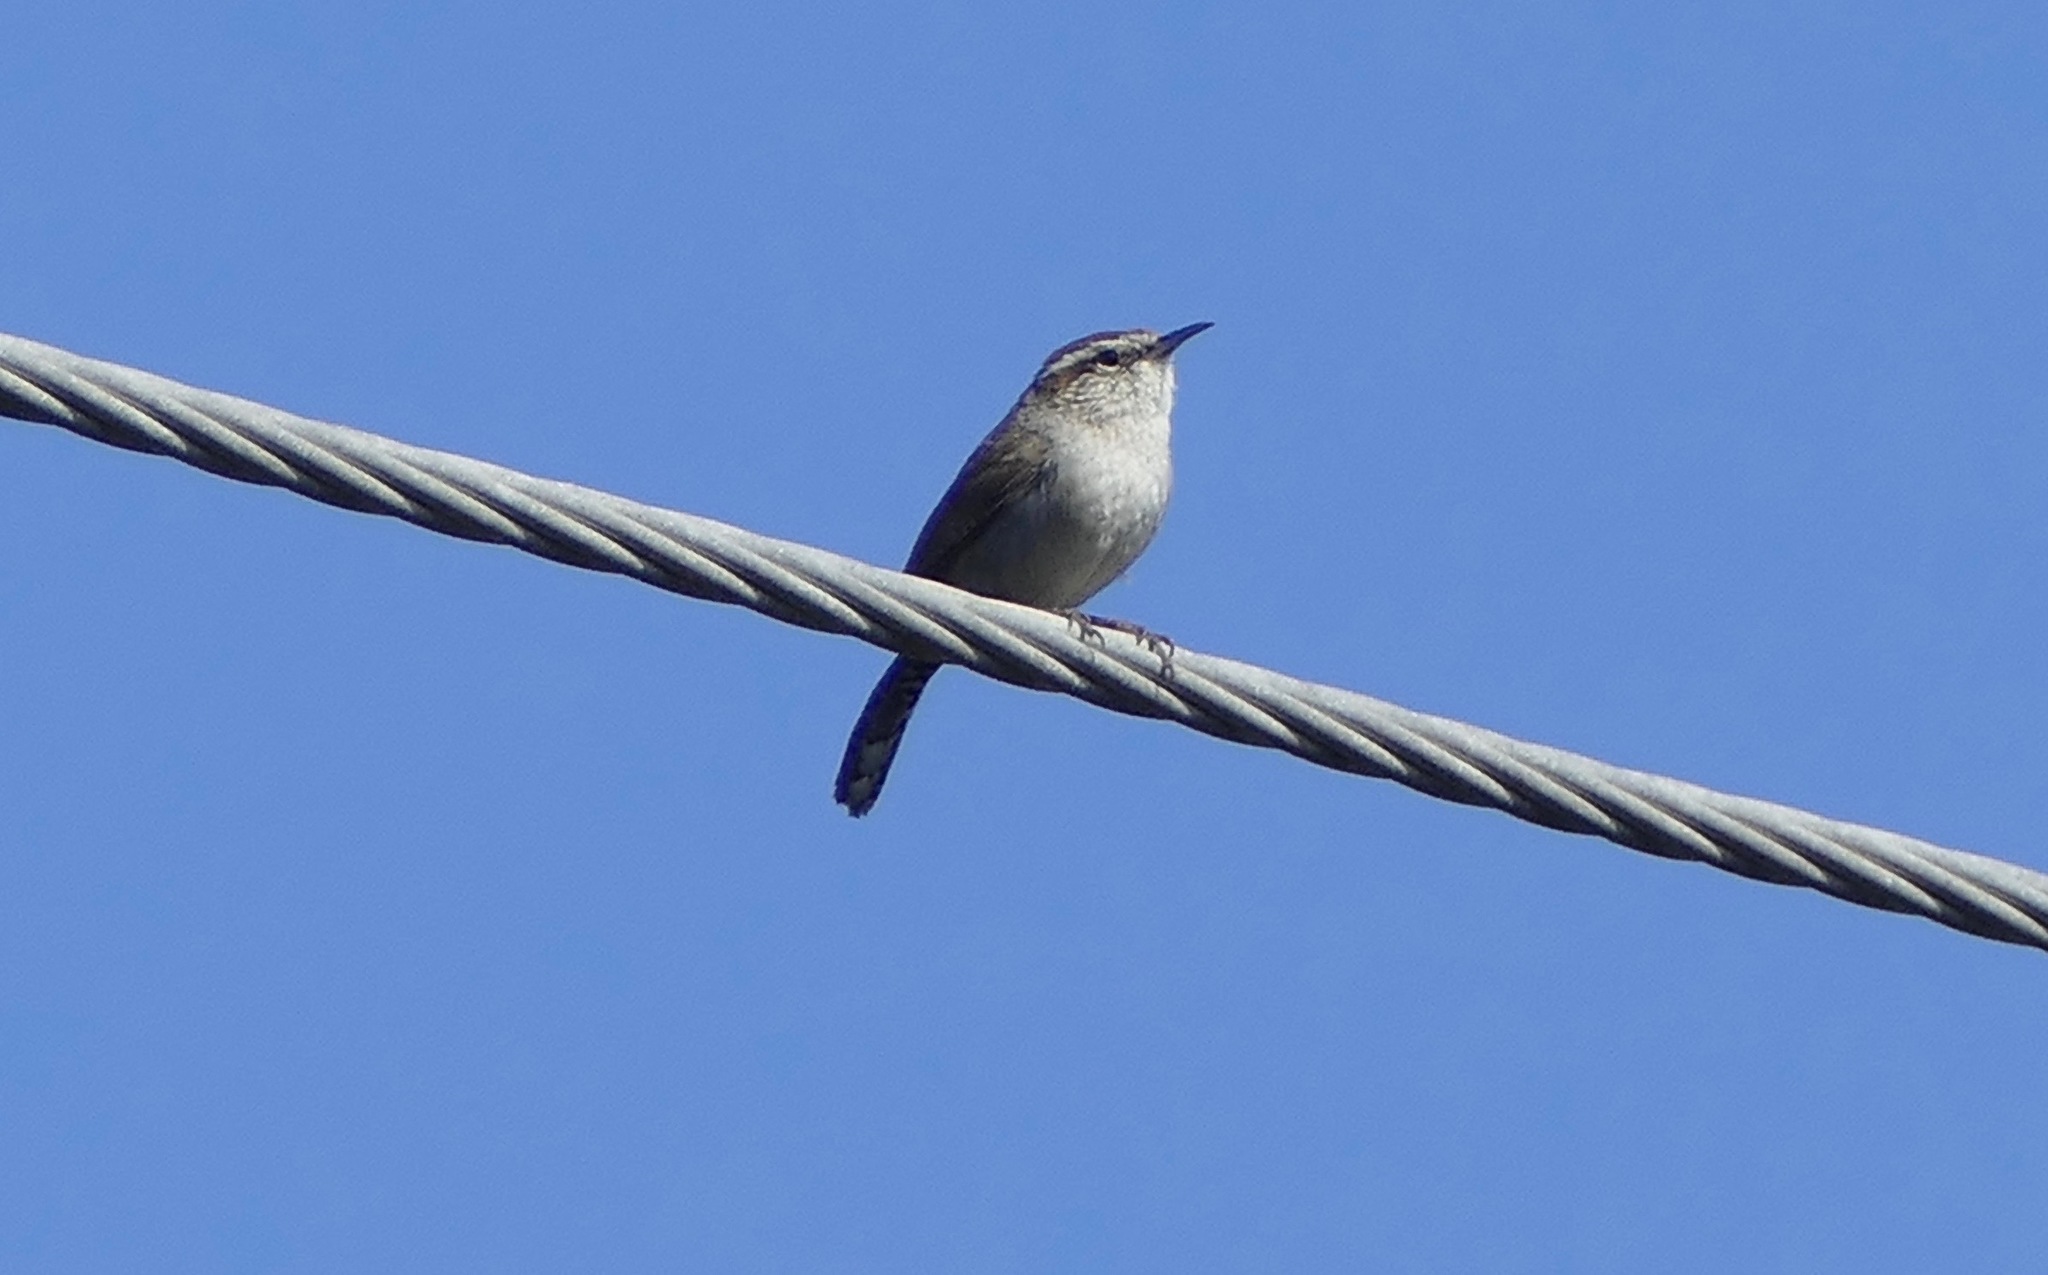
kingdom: Animalia
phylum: Chordata
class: Aves
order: Passeriformes
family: Troglodytidae
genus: Thryomanes
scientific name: Thryomanes bewickii
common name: Bewick's wren
